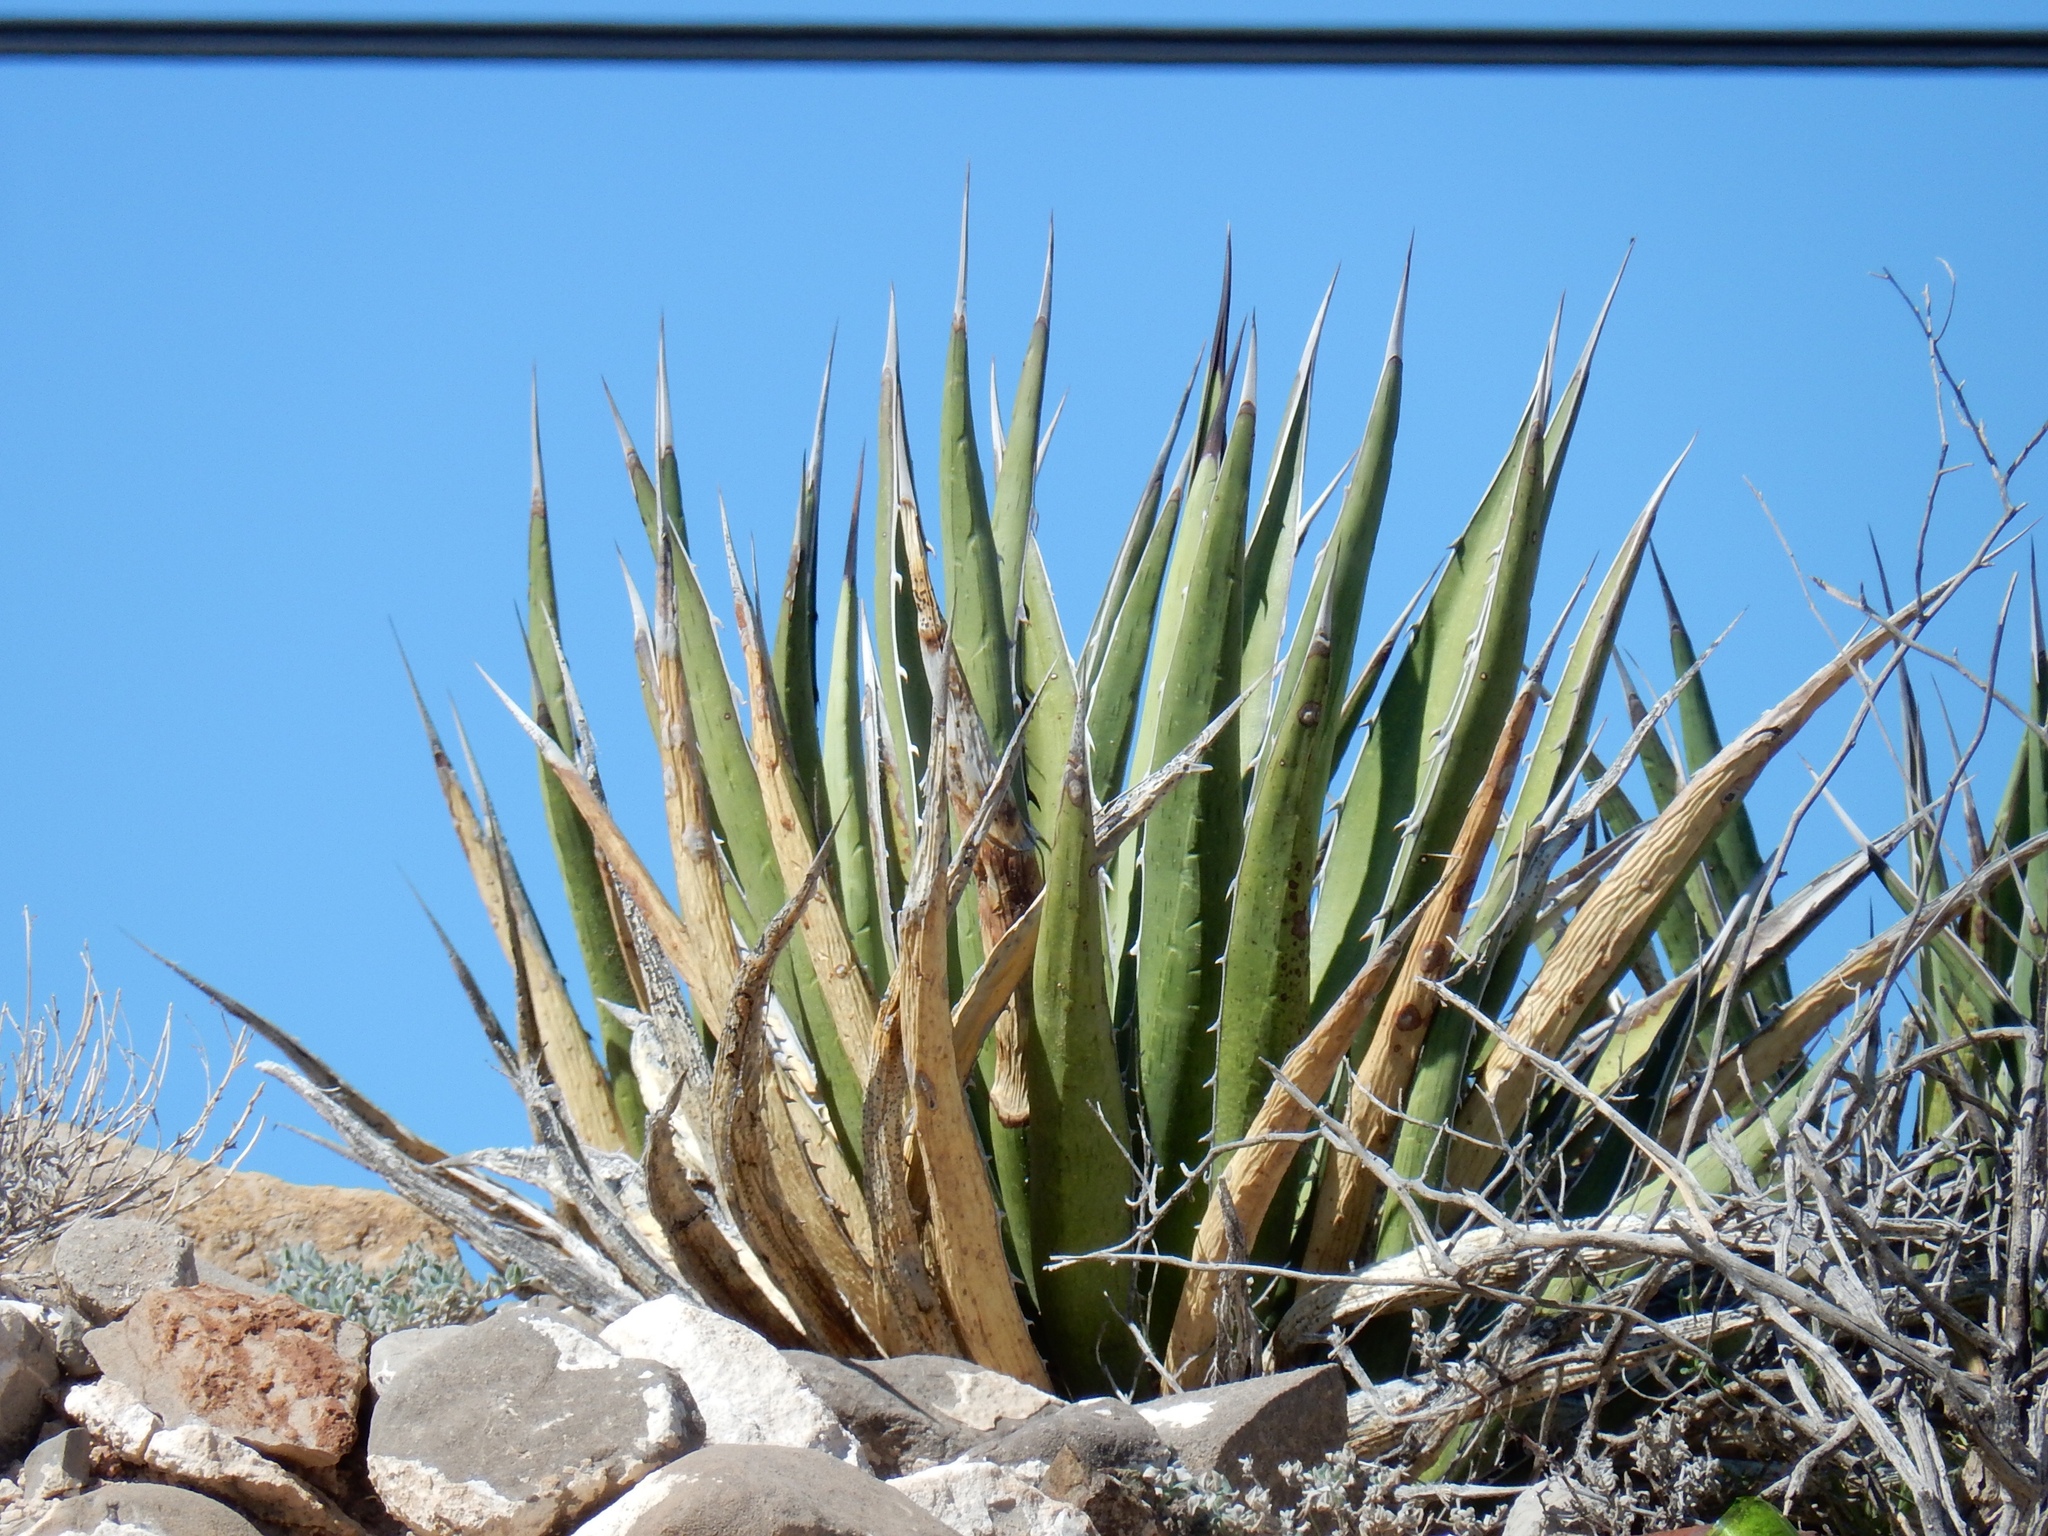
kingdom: Plantae
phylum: Tracheophyta
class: Liliopsida
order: Asparagales
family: Asparagaceae
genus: Agave
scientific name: Agave lechuguilla
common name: Lecheguilla agave
